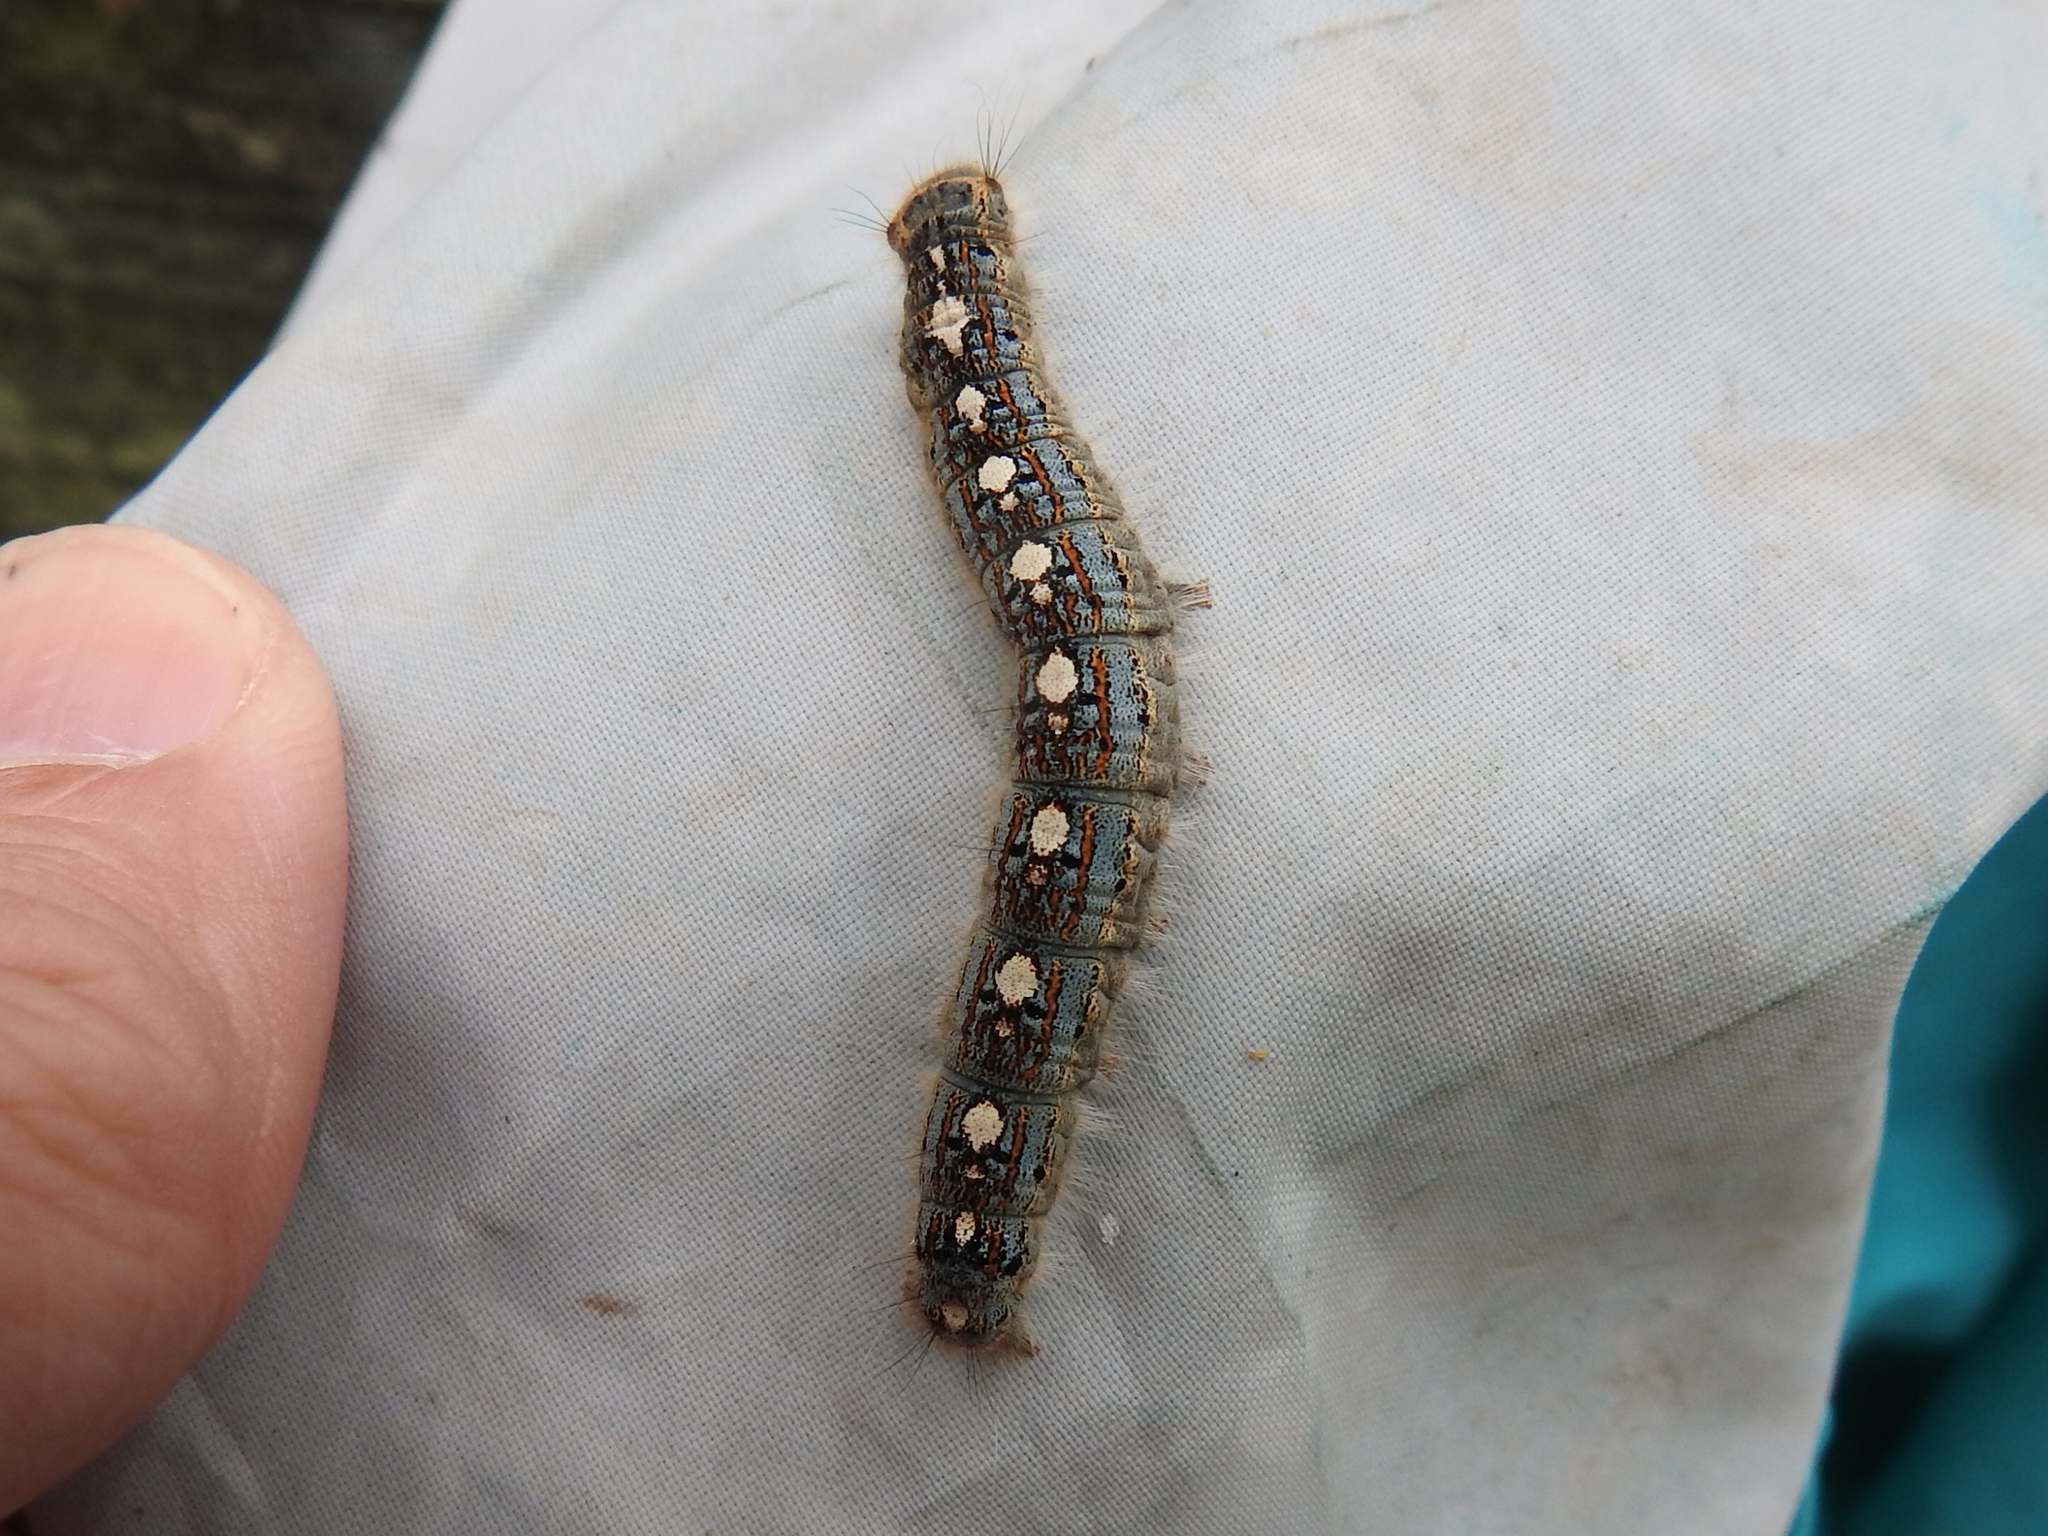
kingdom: Animalia
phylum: Arthropoda
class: Insecta
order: Lepidoptera
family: Lasiocampidae
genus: Malacosoma
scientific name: Malacosoma disstria
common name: Forest tent caterpillar
